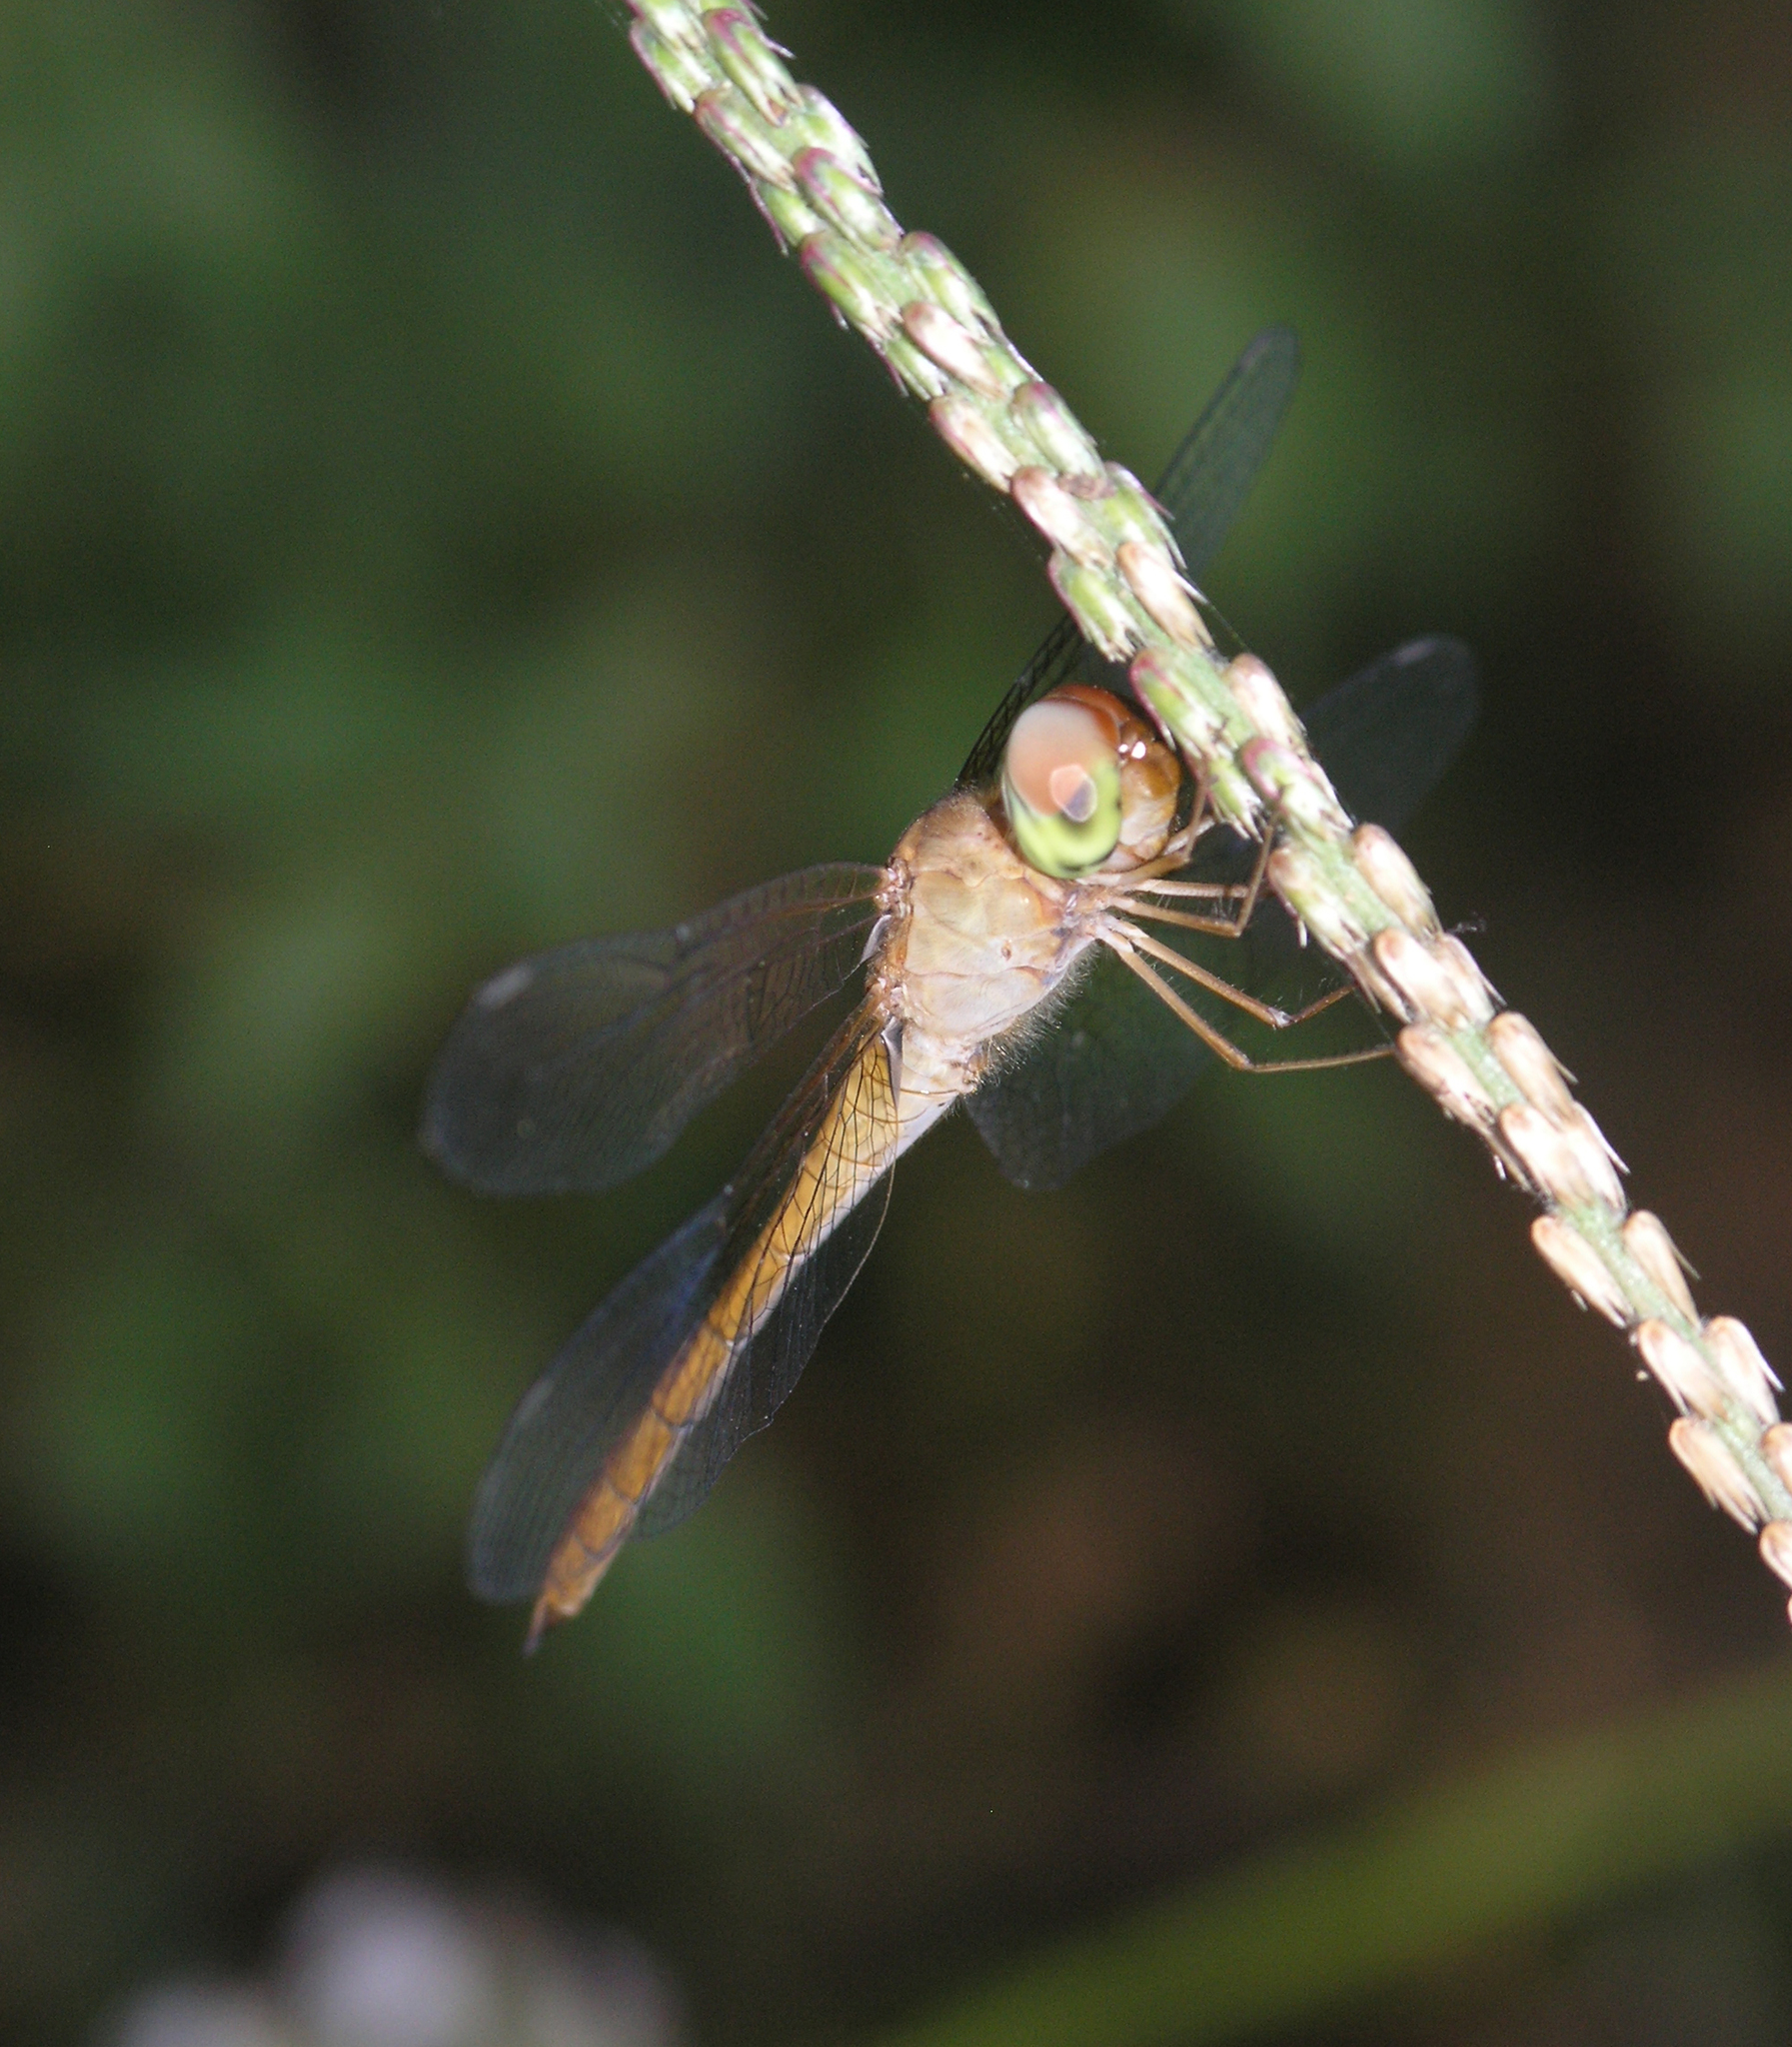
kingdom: Animalia
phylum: Arthropoda
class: Insecta
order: Odonata
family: Libellulidae
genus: Tholymis
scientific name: Tholymis tillarga
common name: Coral-tailed cloud wing
